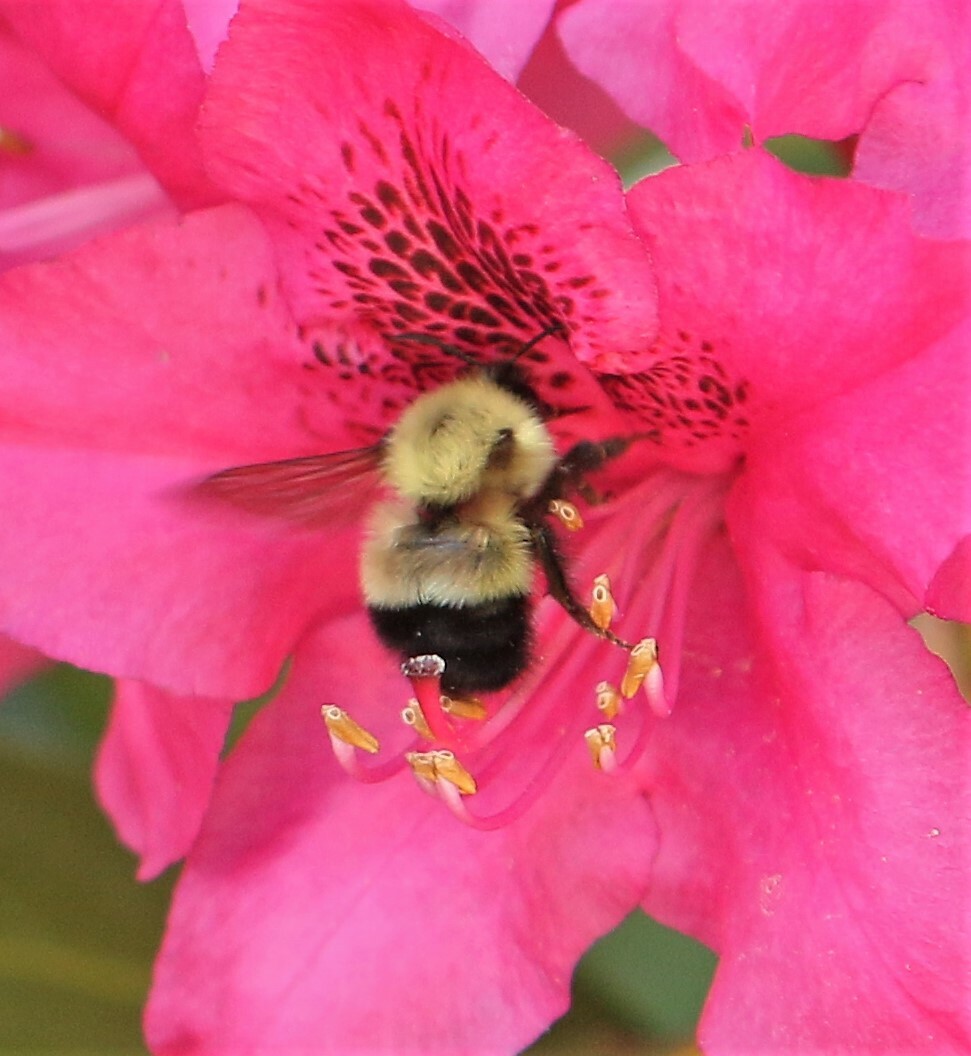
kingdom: Animalia
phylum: Arthropoda
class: Insecta
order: Hymenoptera
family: Apidae
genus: Pyrobombus
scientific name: Pyrobombus
